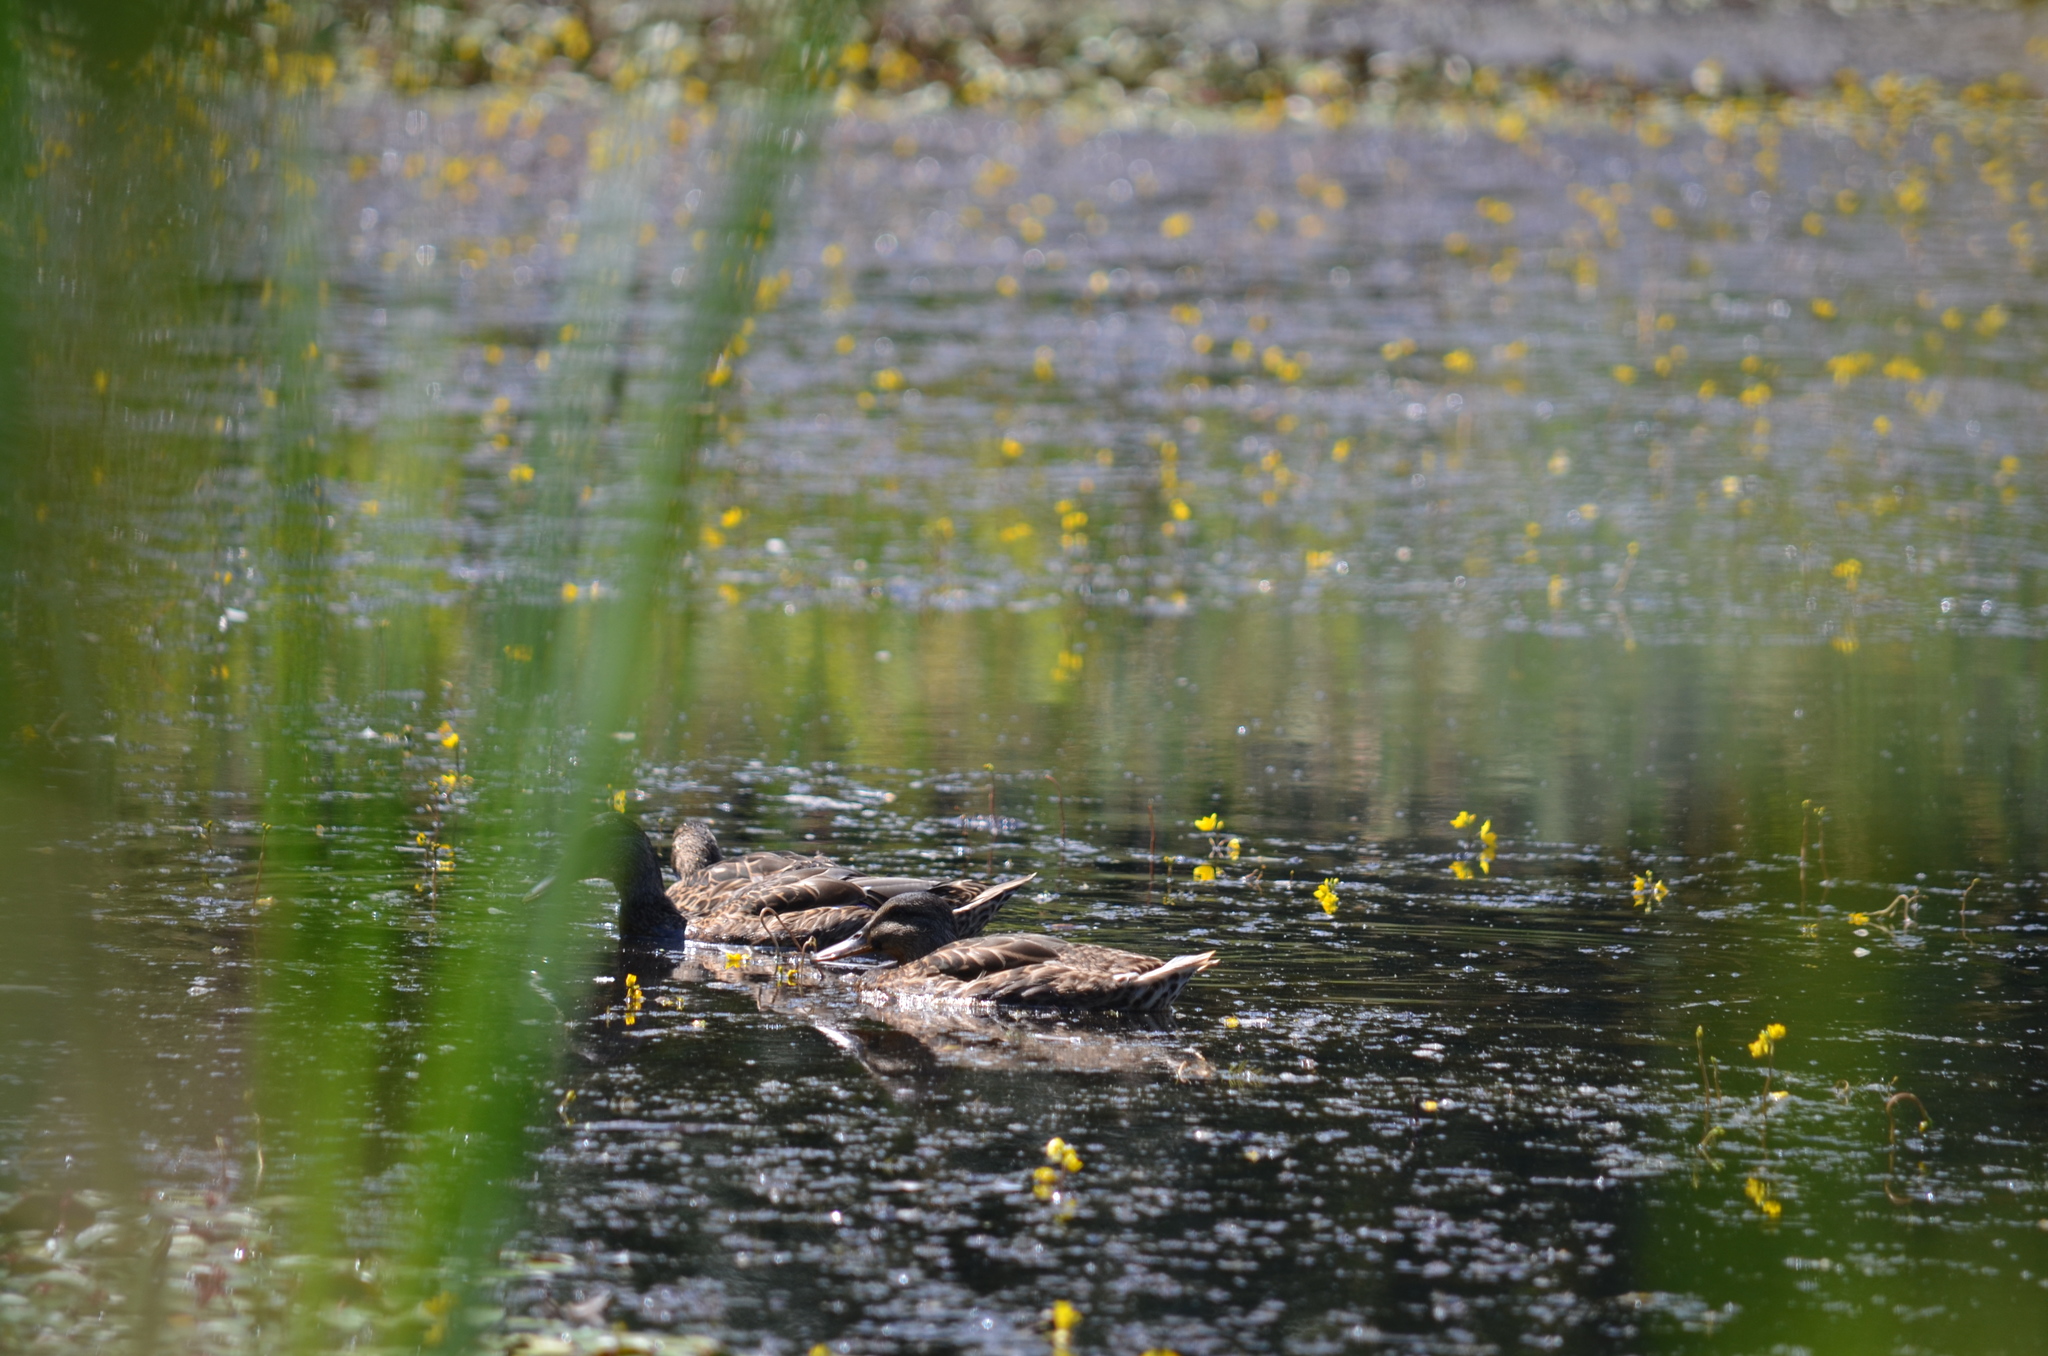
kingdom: Animalia
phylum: Chordata
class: Aves
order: Anseriformes
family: Anatidae
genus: Anas
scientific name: Anas platyrhynchos
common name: Mallard
